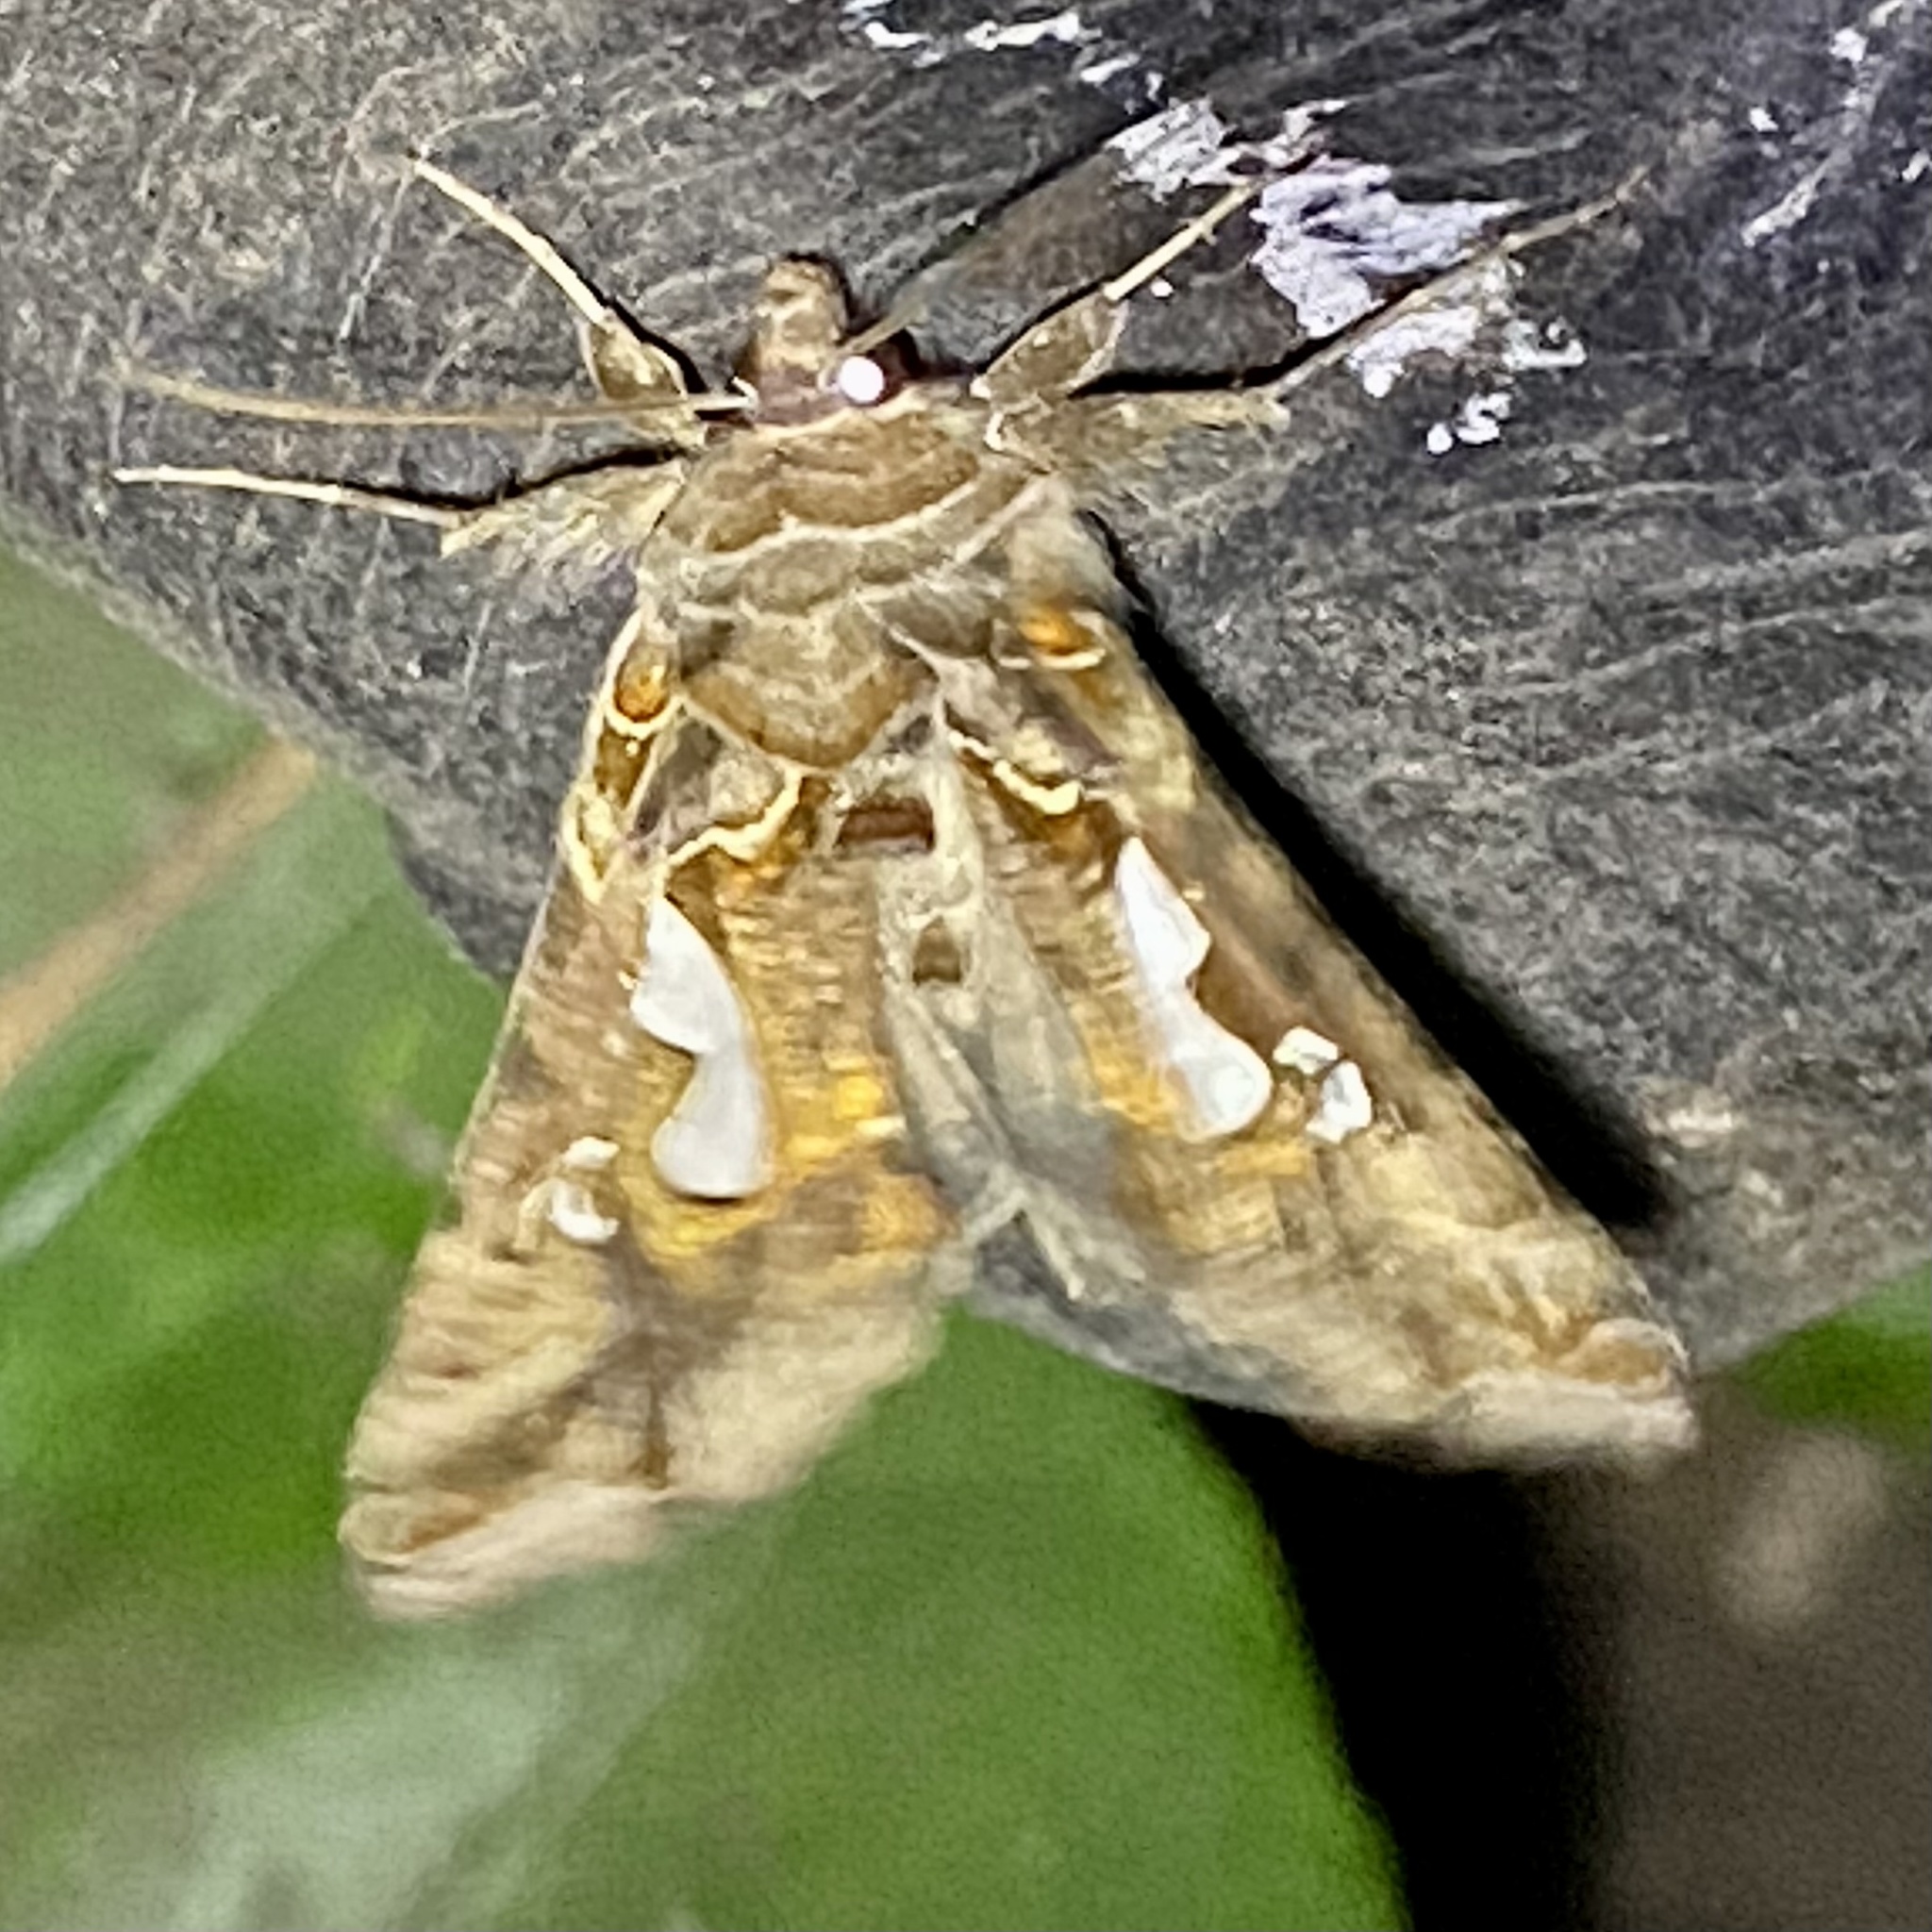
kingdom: Animalia
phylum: Arthropoda
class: Insecta
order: Lepidoptera
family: Noctuidae
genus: Megalographa
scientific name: Megalographa biloba
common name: Cutworm
